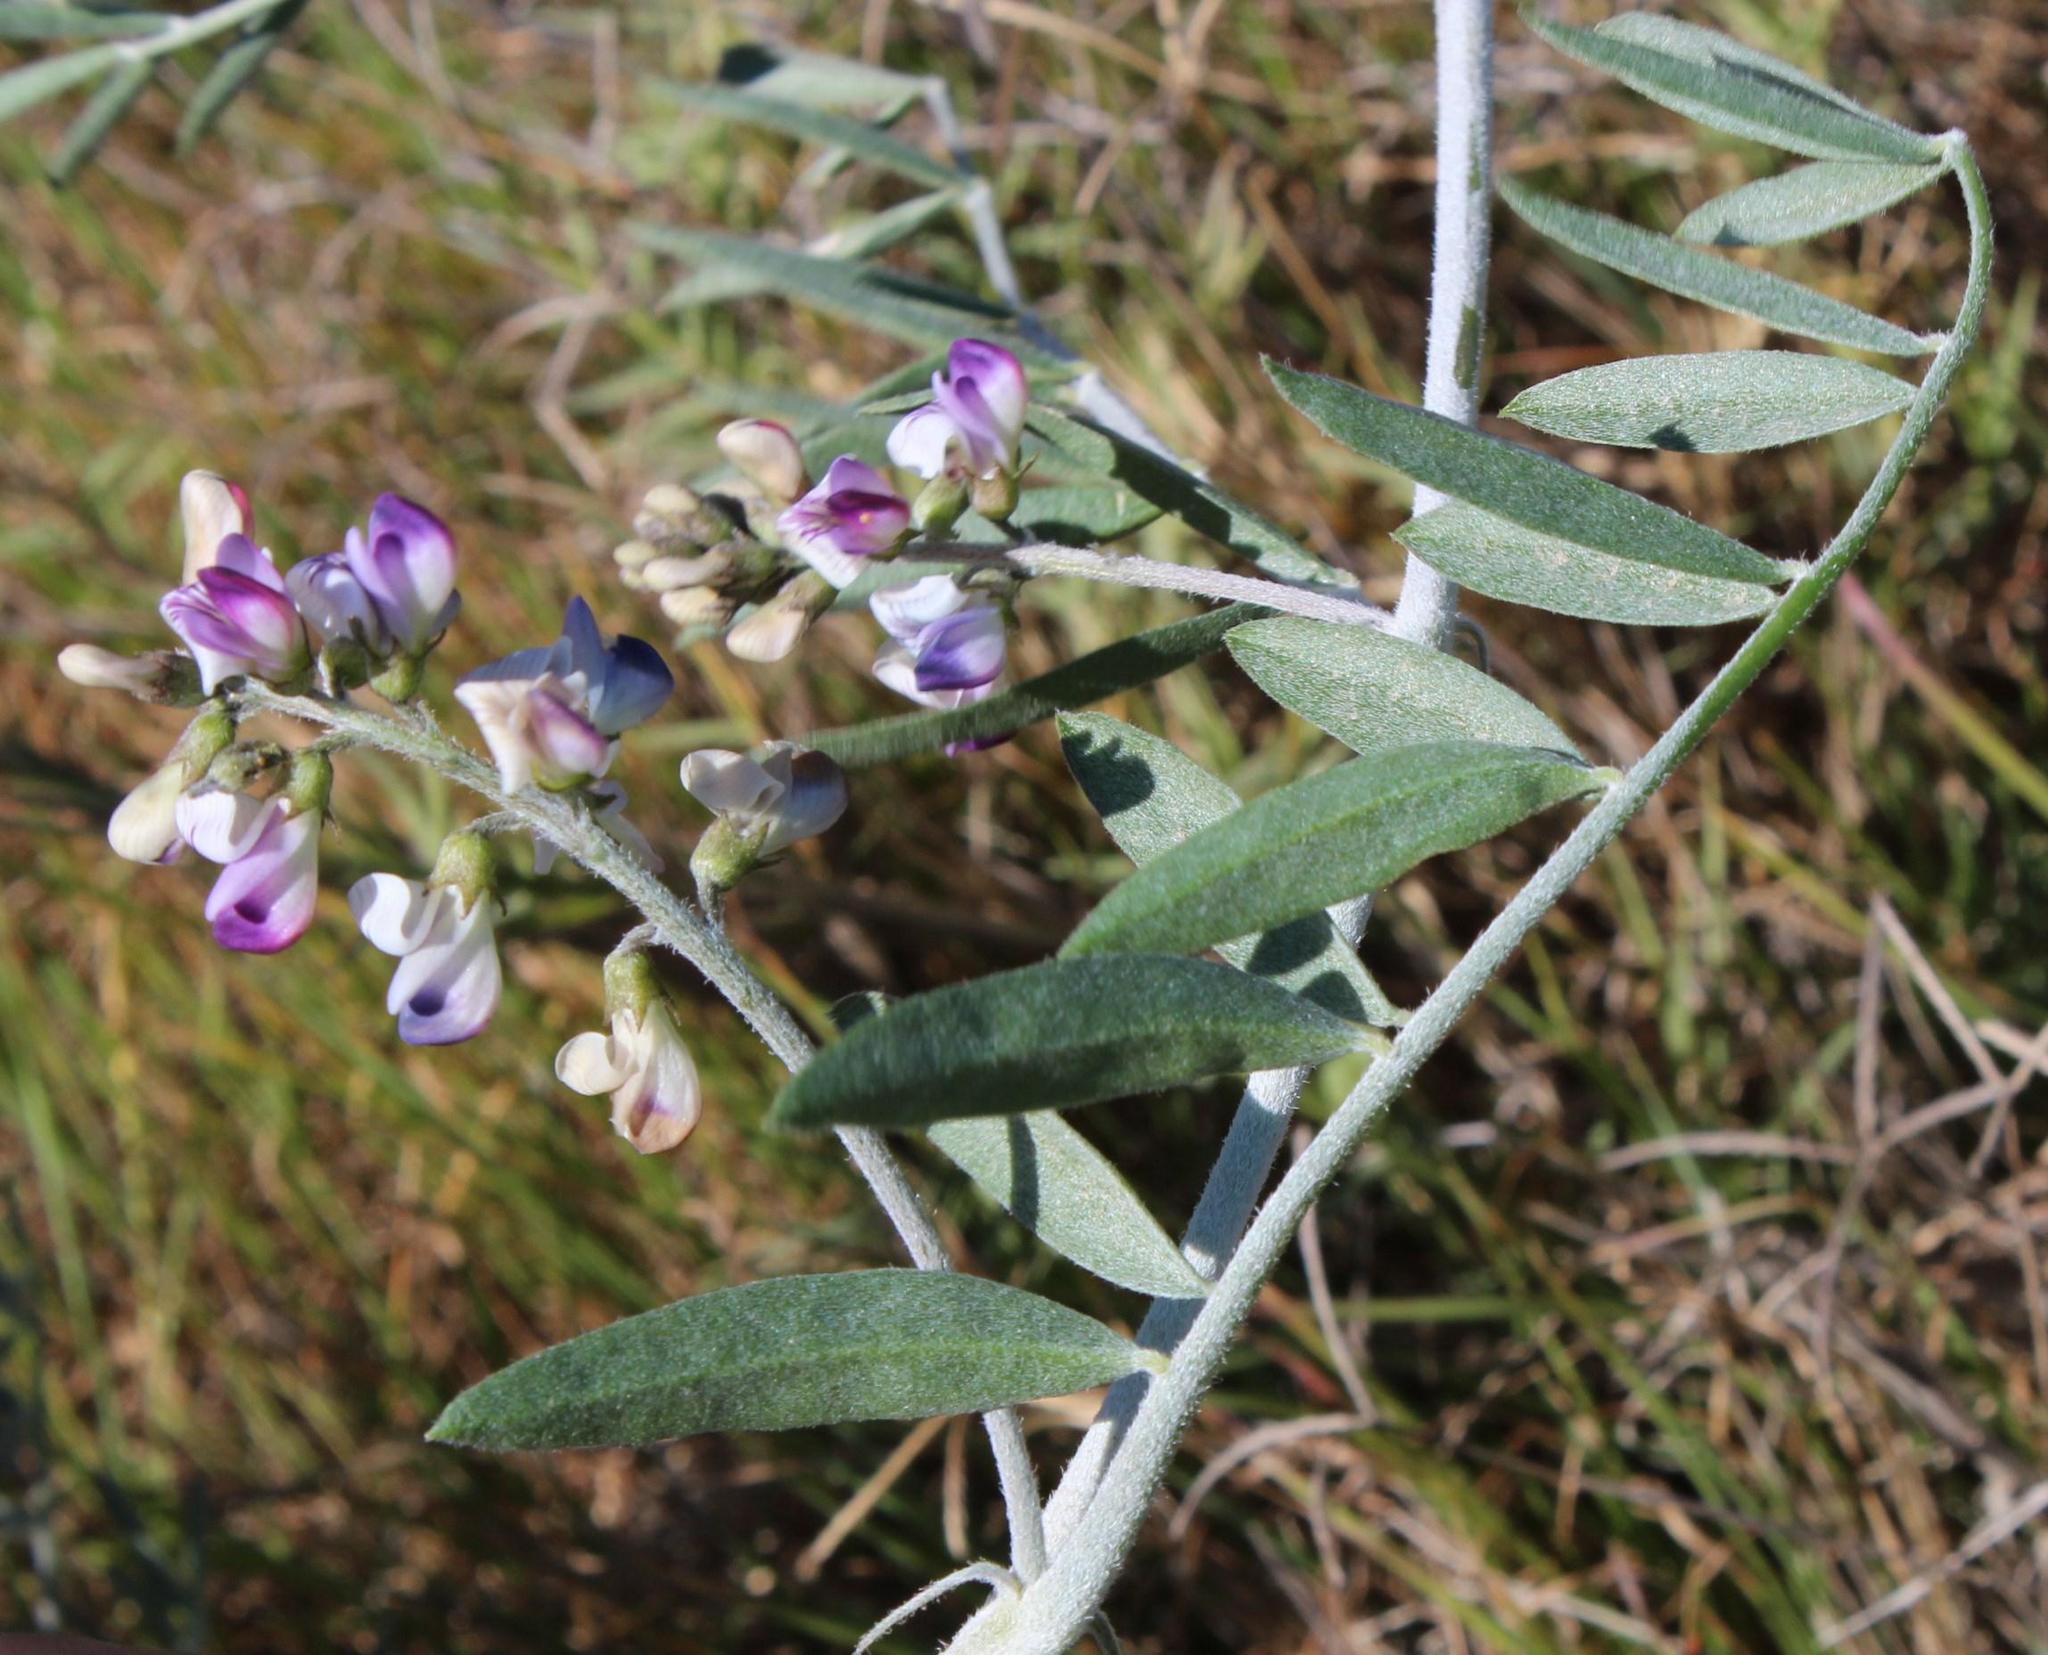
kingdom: Plantae
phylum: Tracheophyta
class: Magnoliopsida
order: Fabales
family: Fabaceae
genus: Lessertia
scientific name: Lessertia candida
